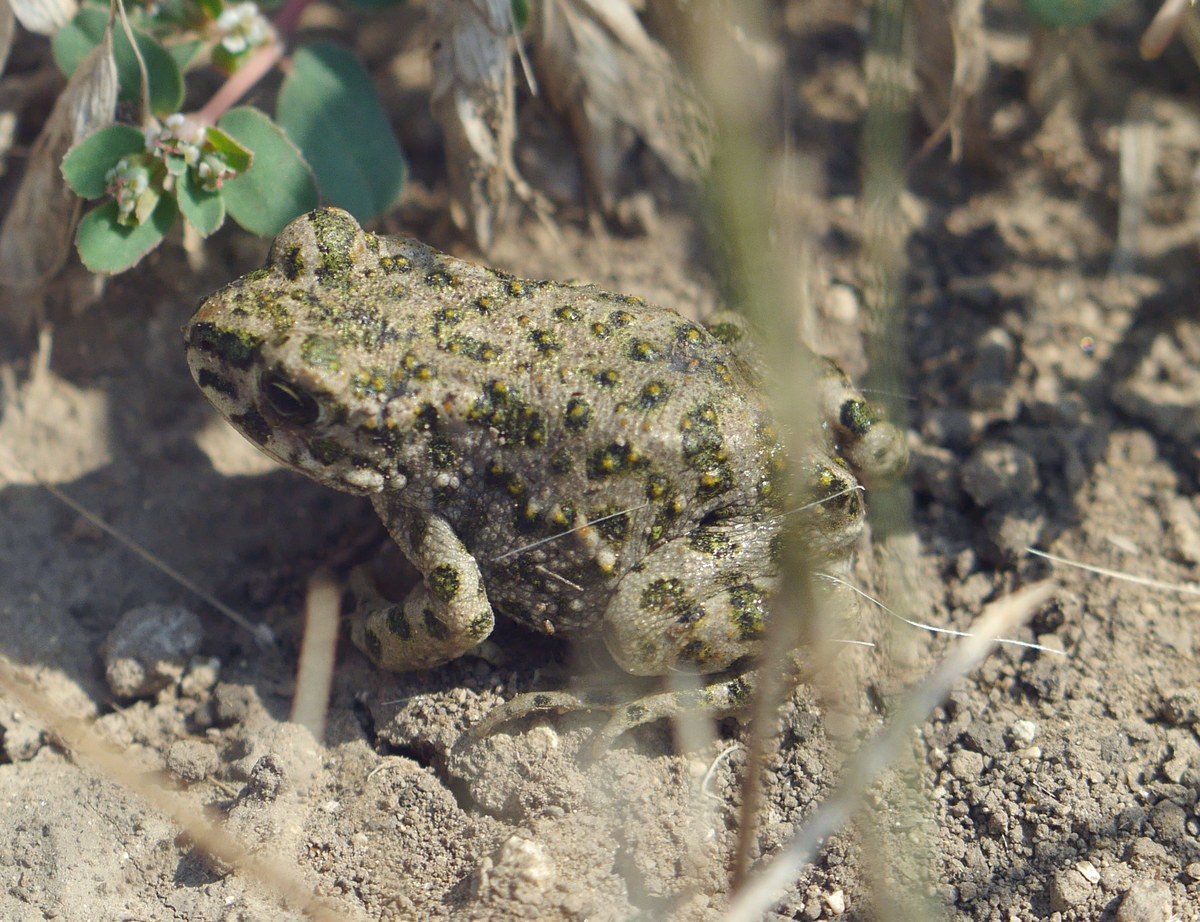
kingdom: Animalia
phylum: Chordata
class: Amphibia
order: Anura
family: Bufonidae
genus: Bufotes
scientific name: Bufotes viridis
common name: European green toad
